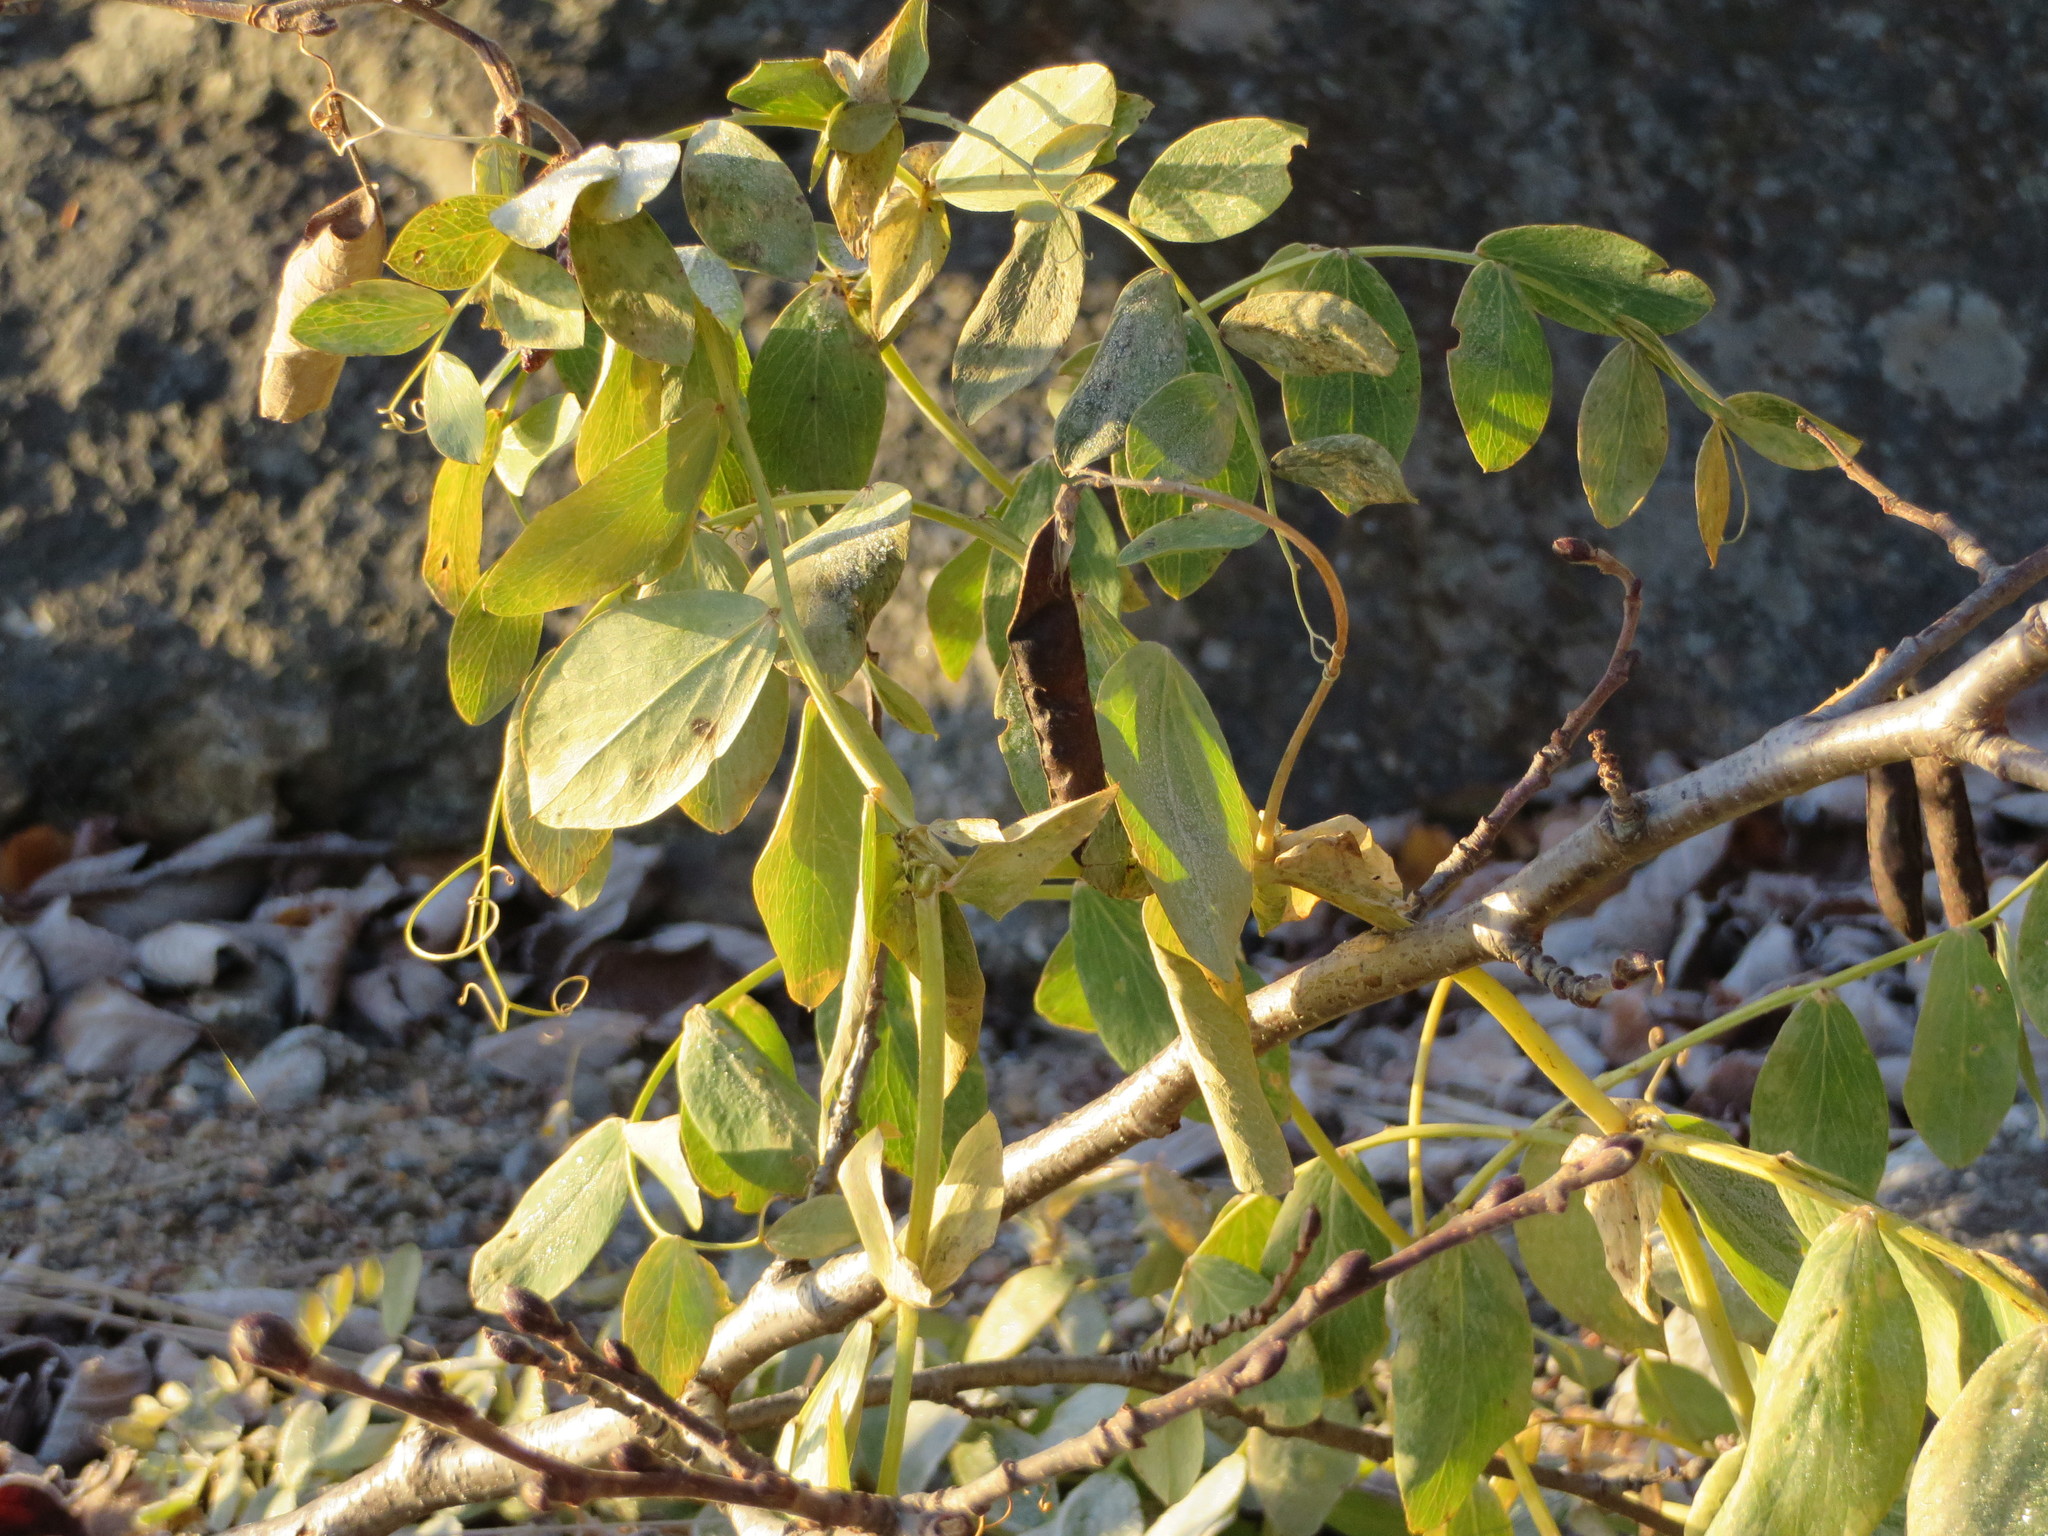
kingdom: Plantae
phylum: Tracheophyta
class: Magnoliopsida
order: Fabales
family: Fabaceae
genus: Lathyrus
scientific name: Lathyrus japonicus
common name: Sea pea
